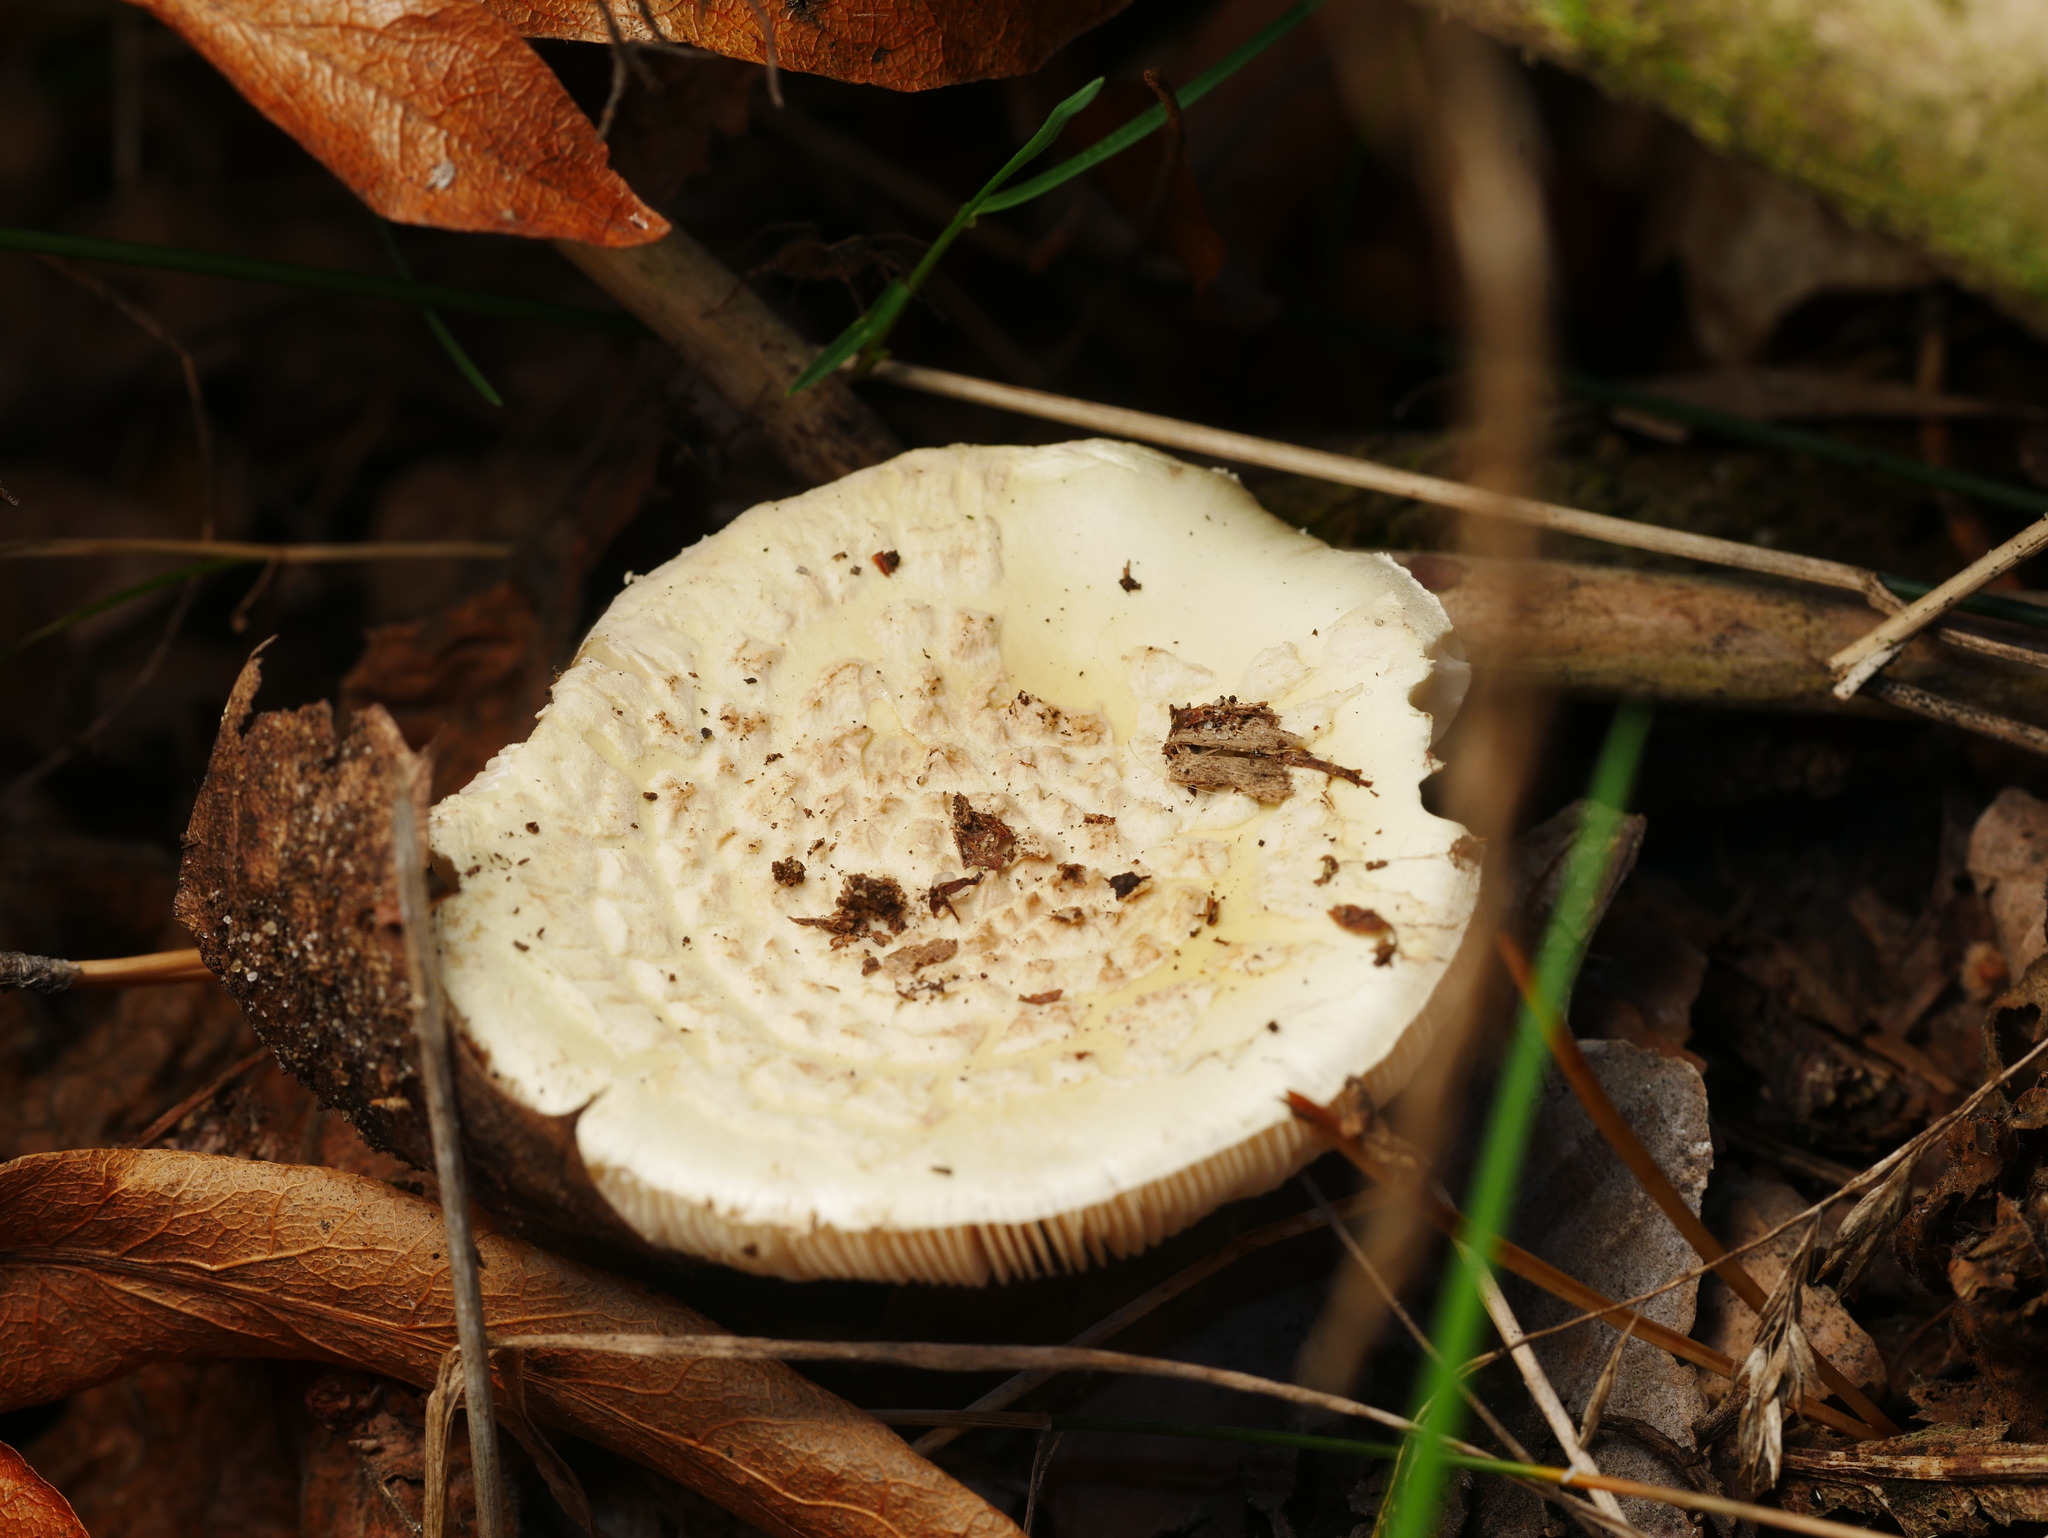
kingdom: Fungi
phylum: Basidiomycota
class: Agaricomycetes
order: Agaricales
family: Amanitaceae
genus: Amanita
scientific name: Amanita citrina
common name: False death-cap
